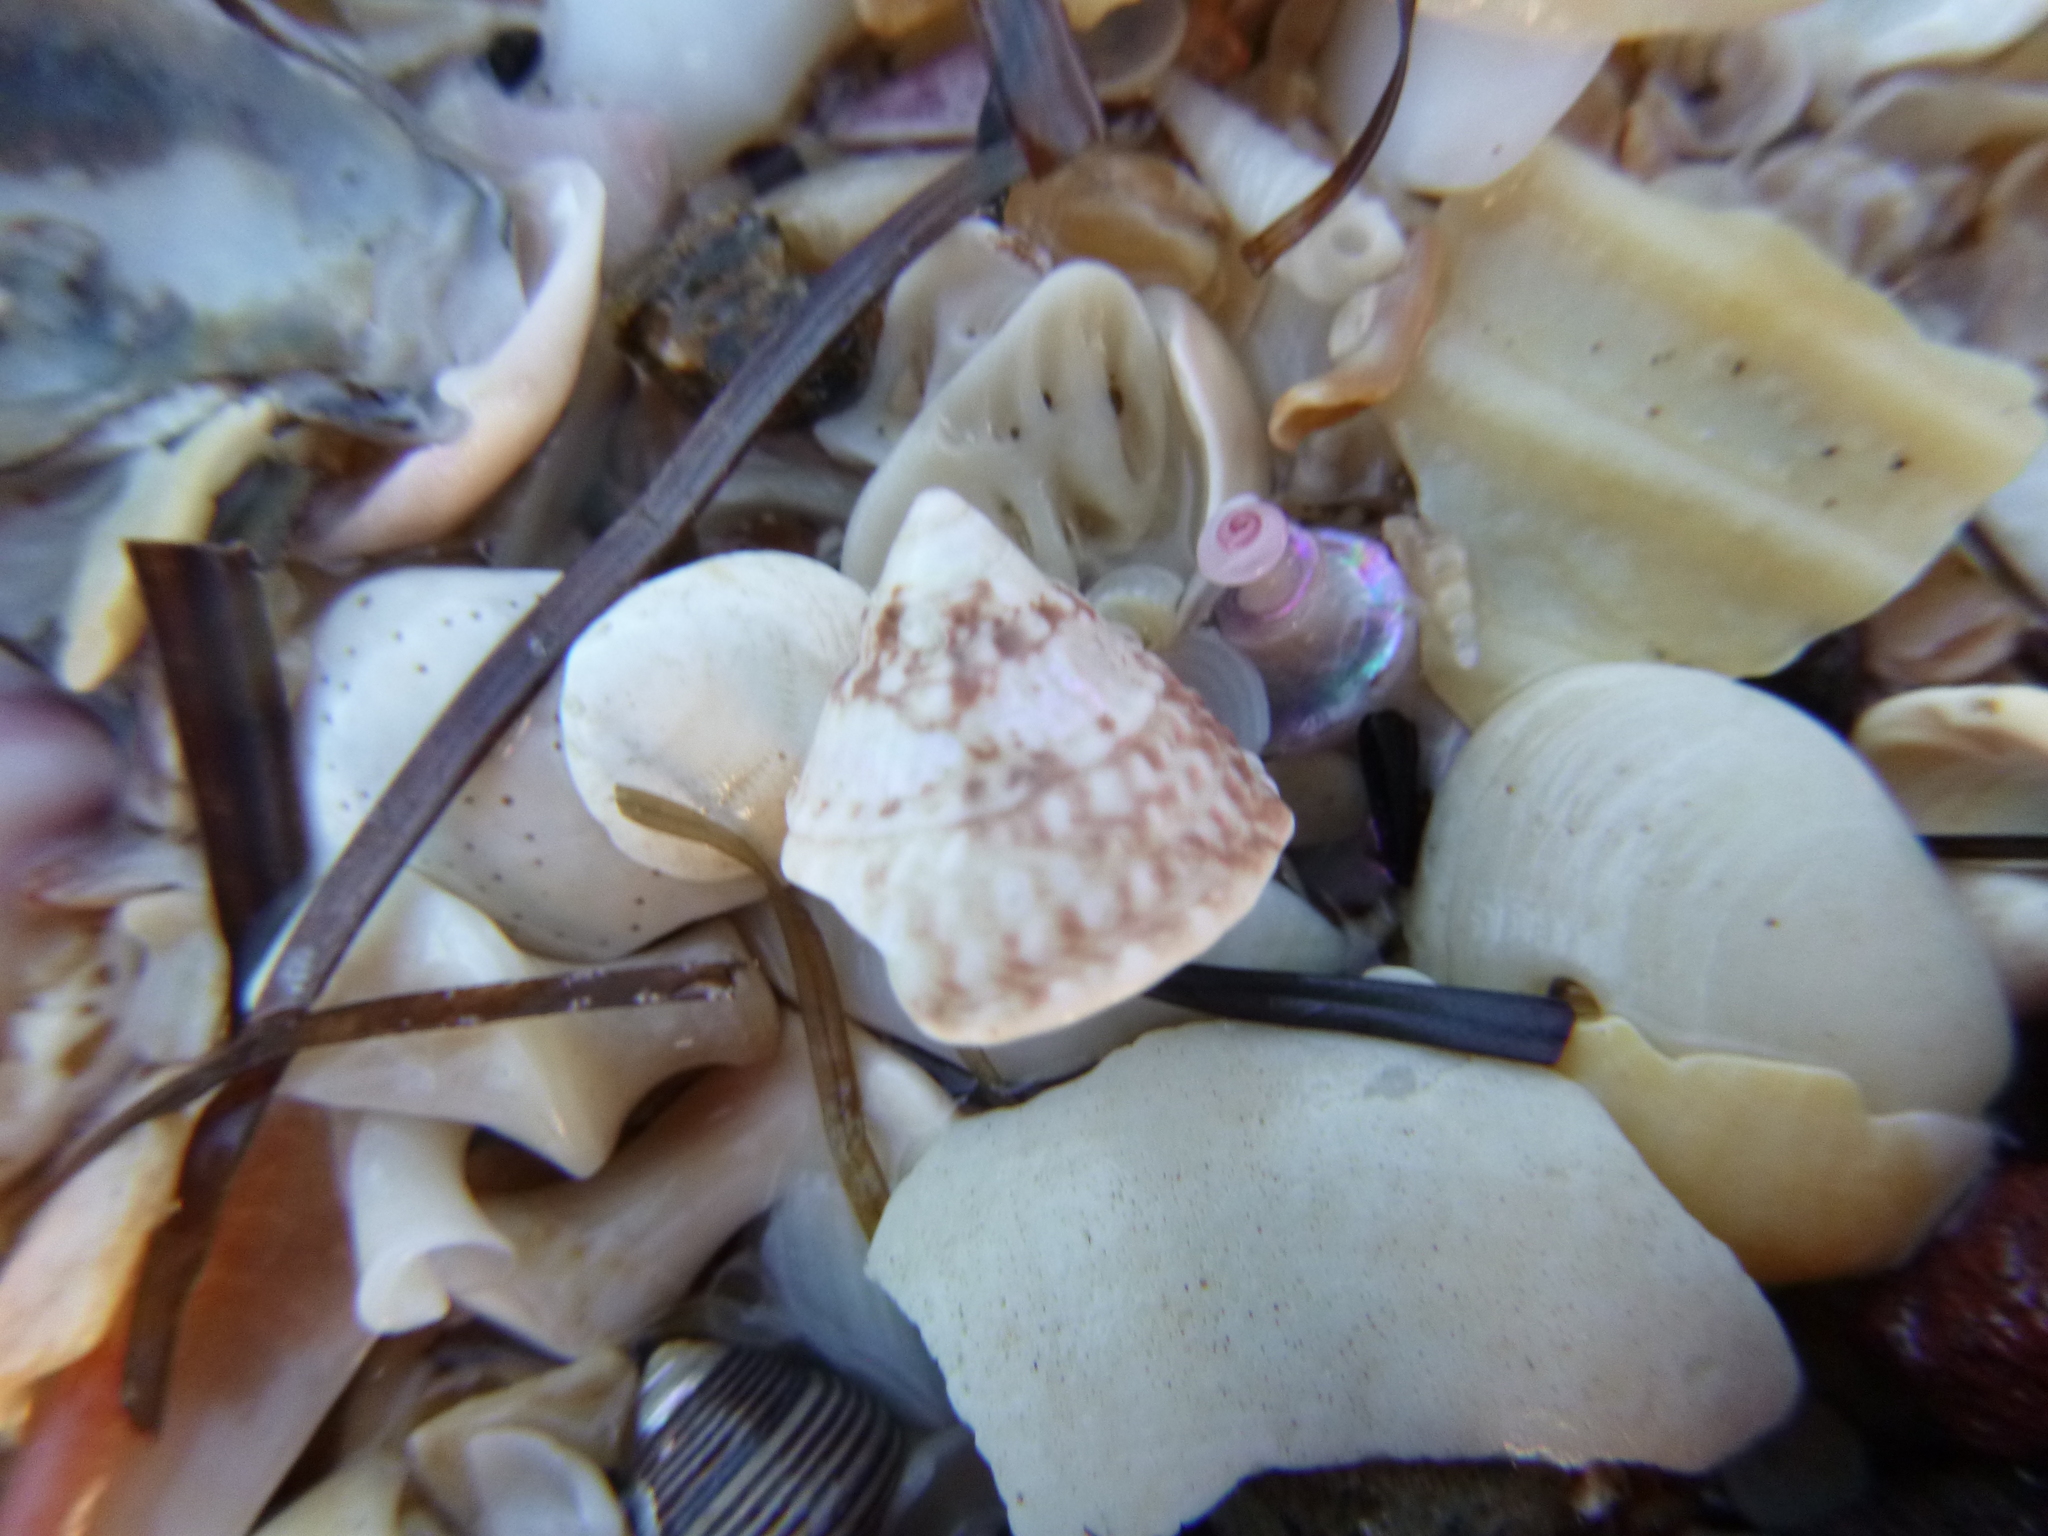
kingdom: Animalia
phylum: Mollusca
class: Gastropoda
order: Trochida
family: Trochidae
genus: Coelotrochus
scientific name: Coelotrochus viridis
